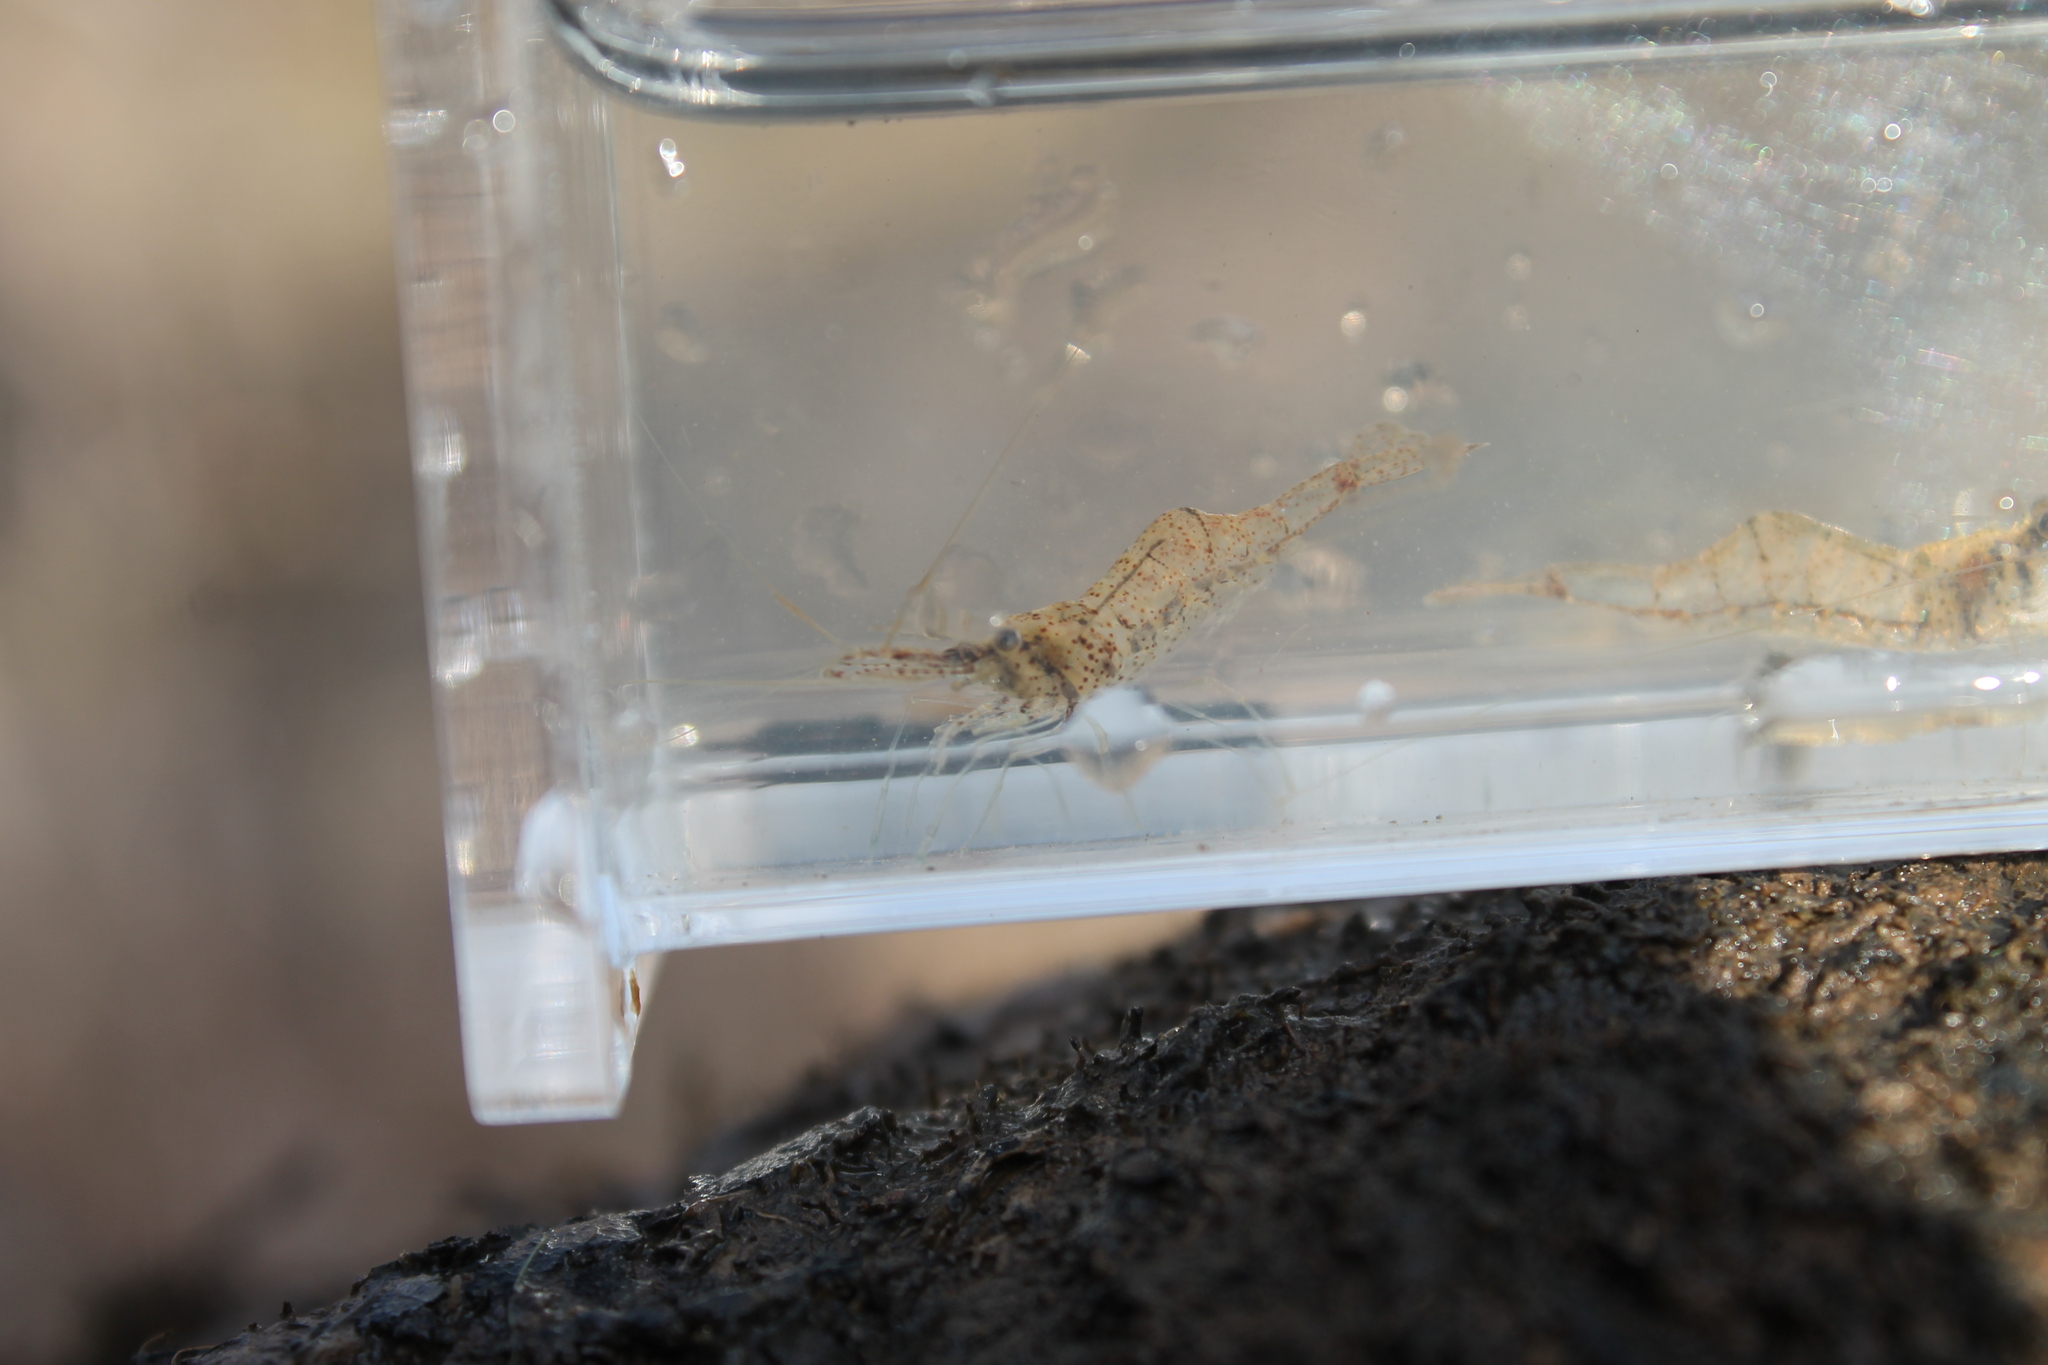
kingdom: Animalia
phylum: Arthropoda
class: Malacostraca
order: Decapoda
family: Palaemonidae
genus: Palaemon
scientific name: Palaemon kadiakensis
